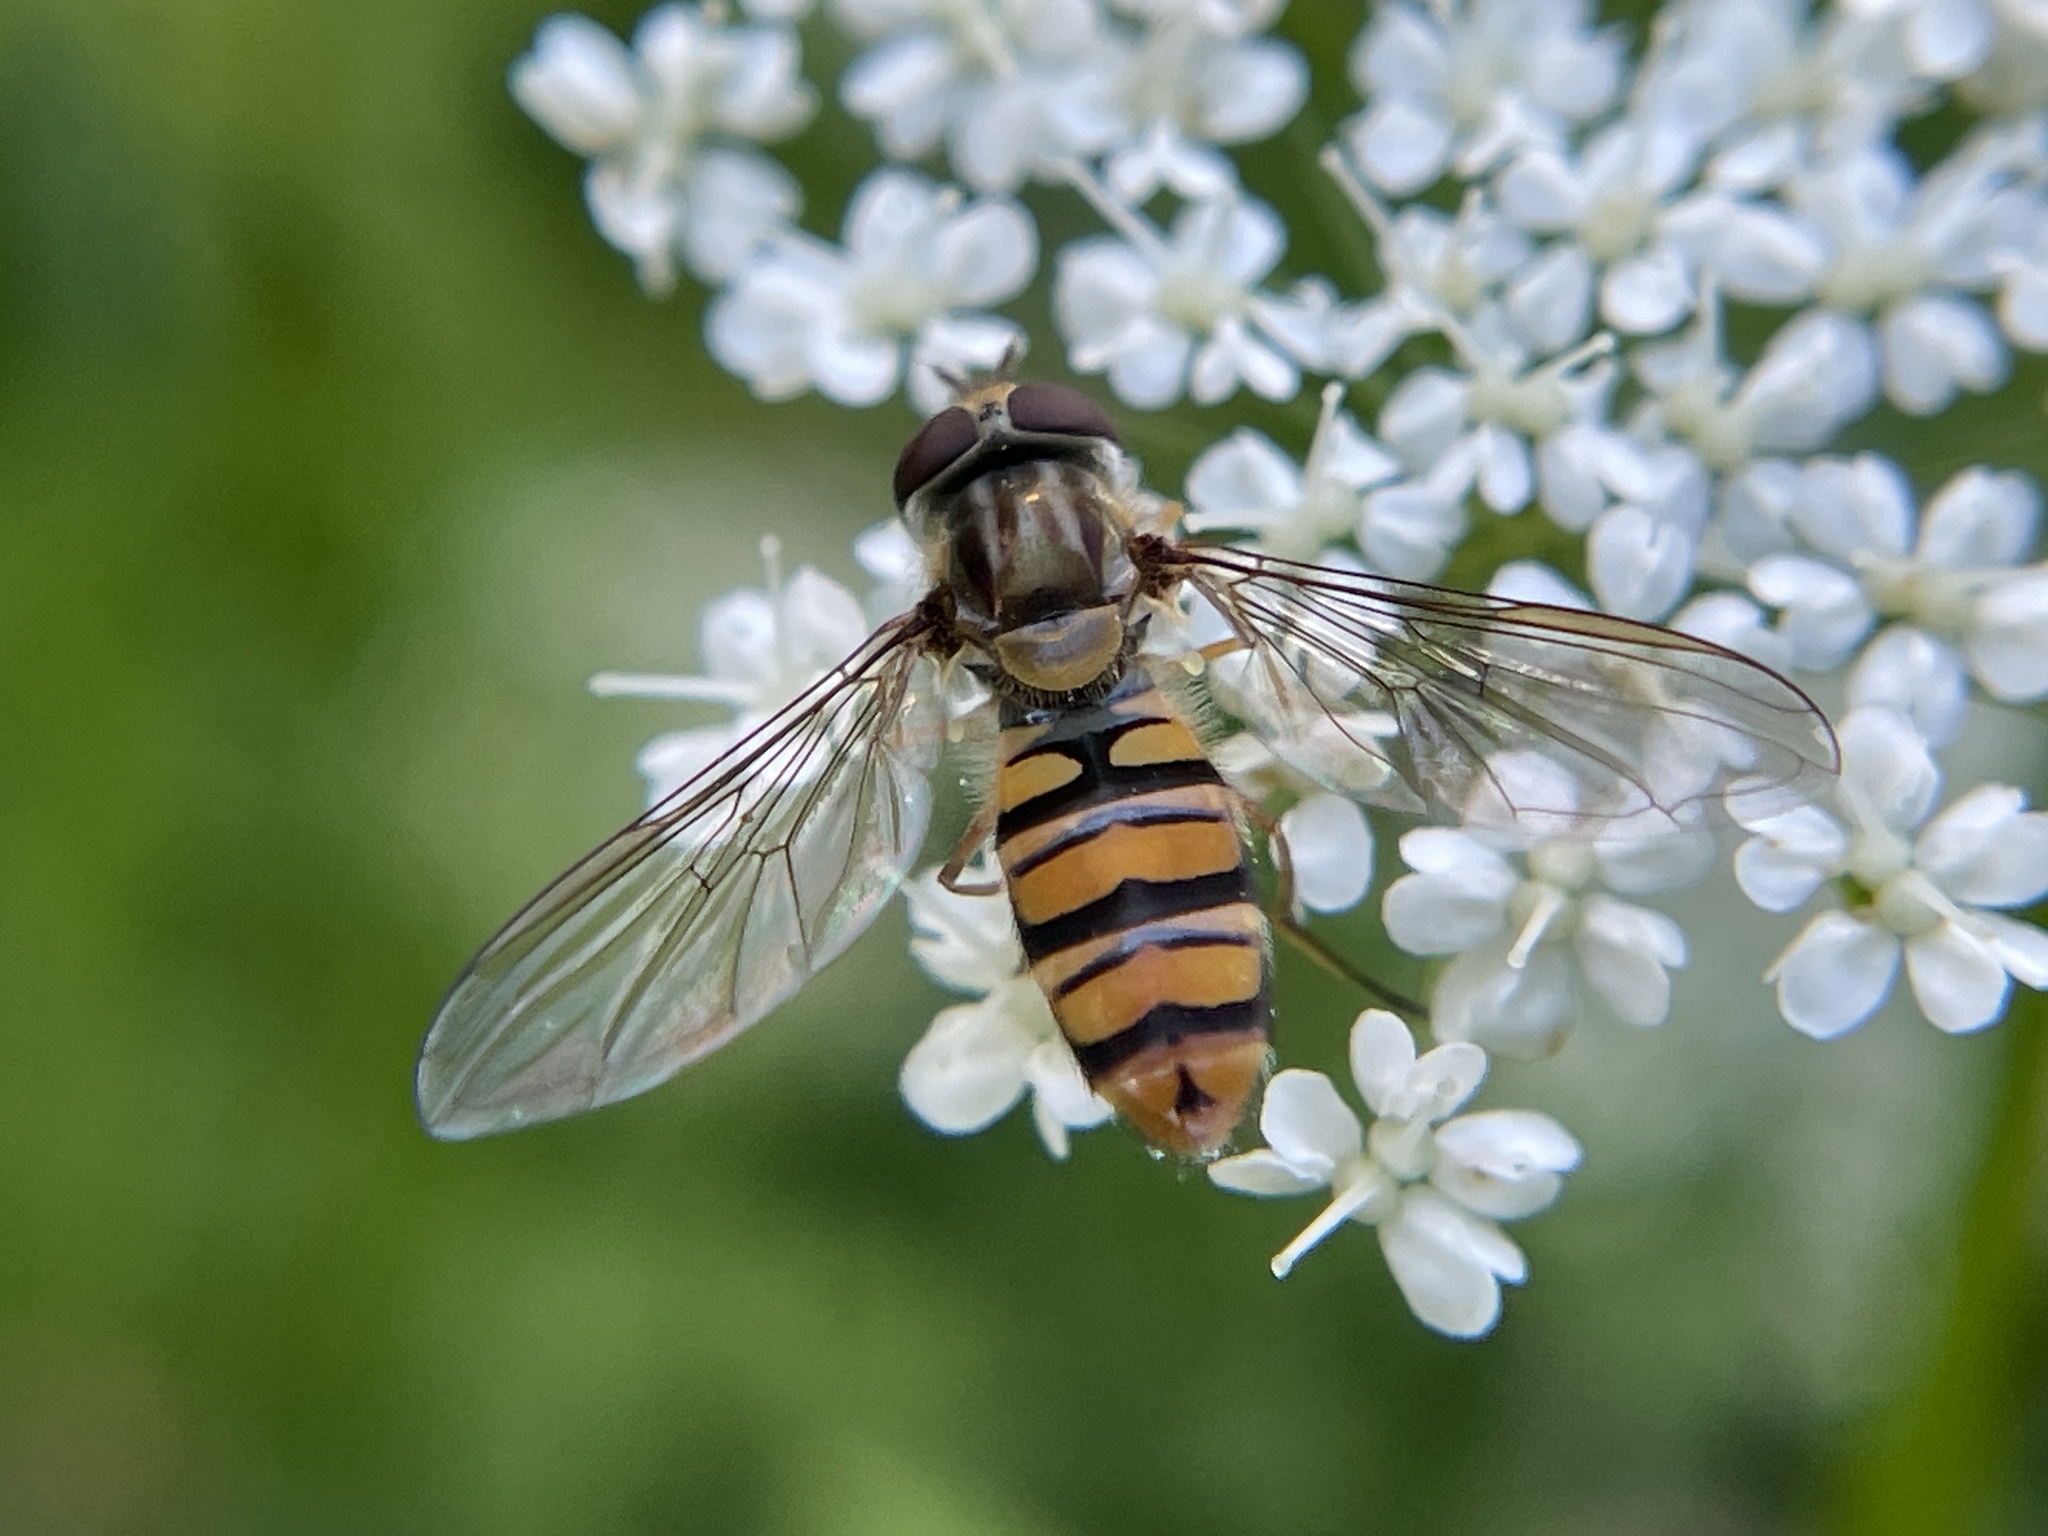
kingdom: Animalia
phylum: Arthropoda
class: Insecta
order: Diptera
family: Syrphidae
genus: Episyrphus
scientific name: Episyrphus balteatus
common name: Marmalade hoverfly
